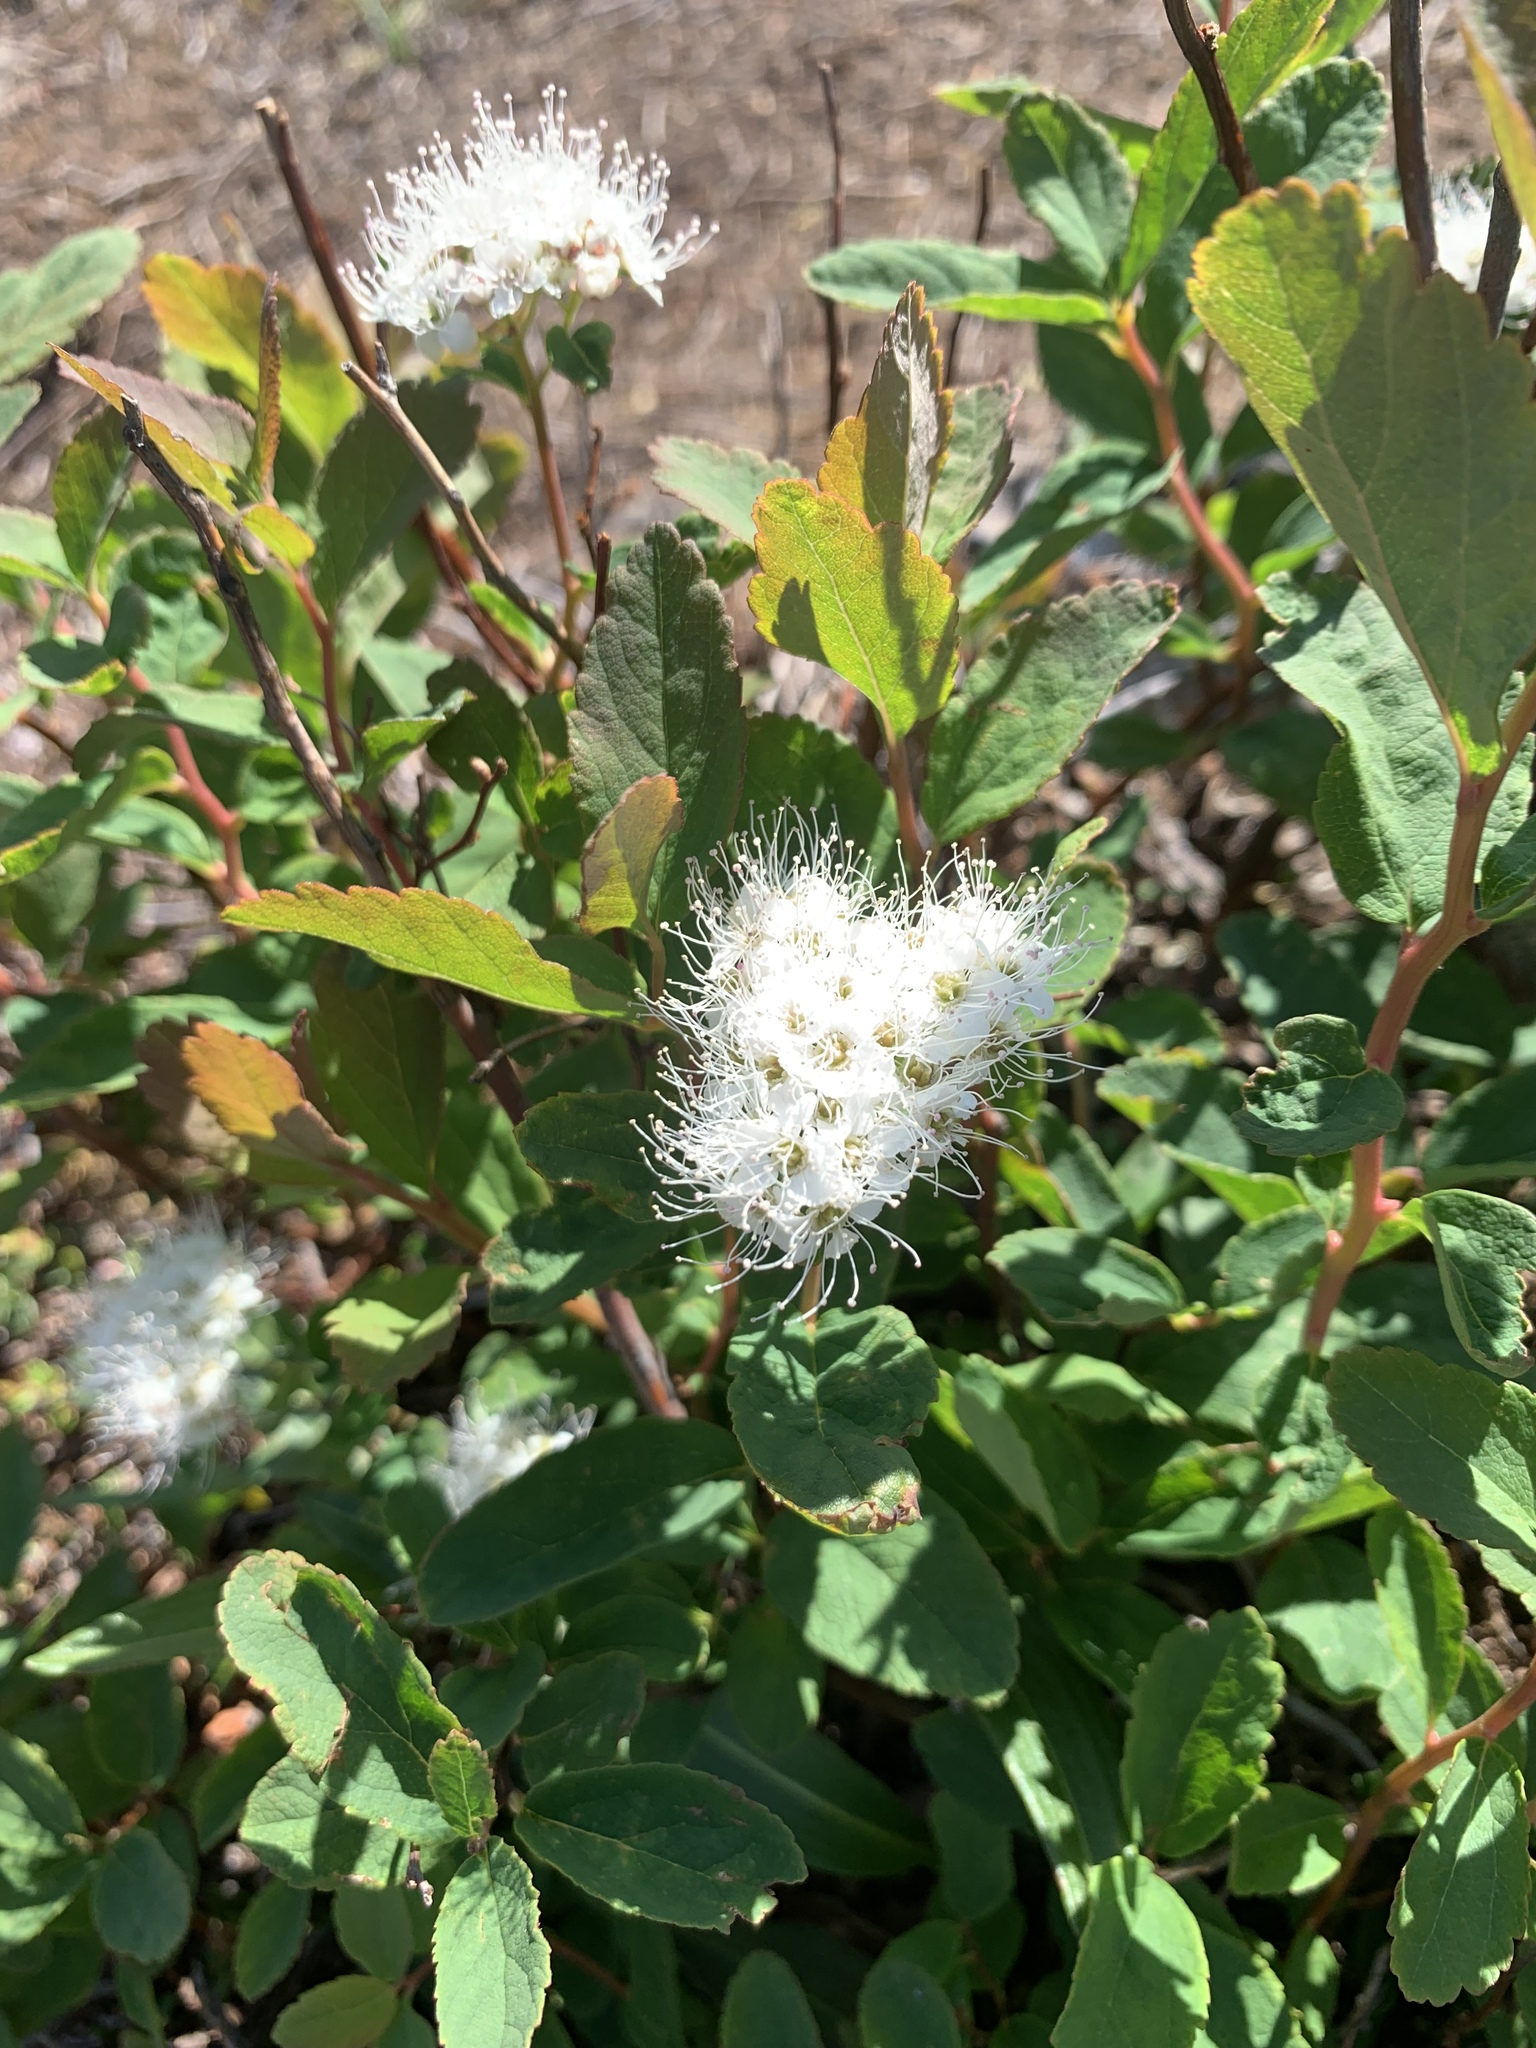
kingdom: Plantae
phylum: Tracheophyta
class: Magnoliopsida
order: Rosales
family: Rosaceae
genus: Spiraea
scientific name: Spiraea stevenii
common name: Steven's meadowsweet
